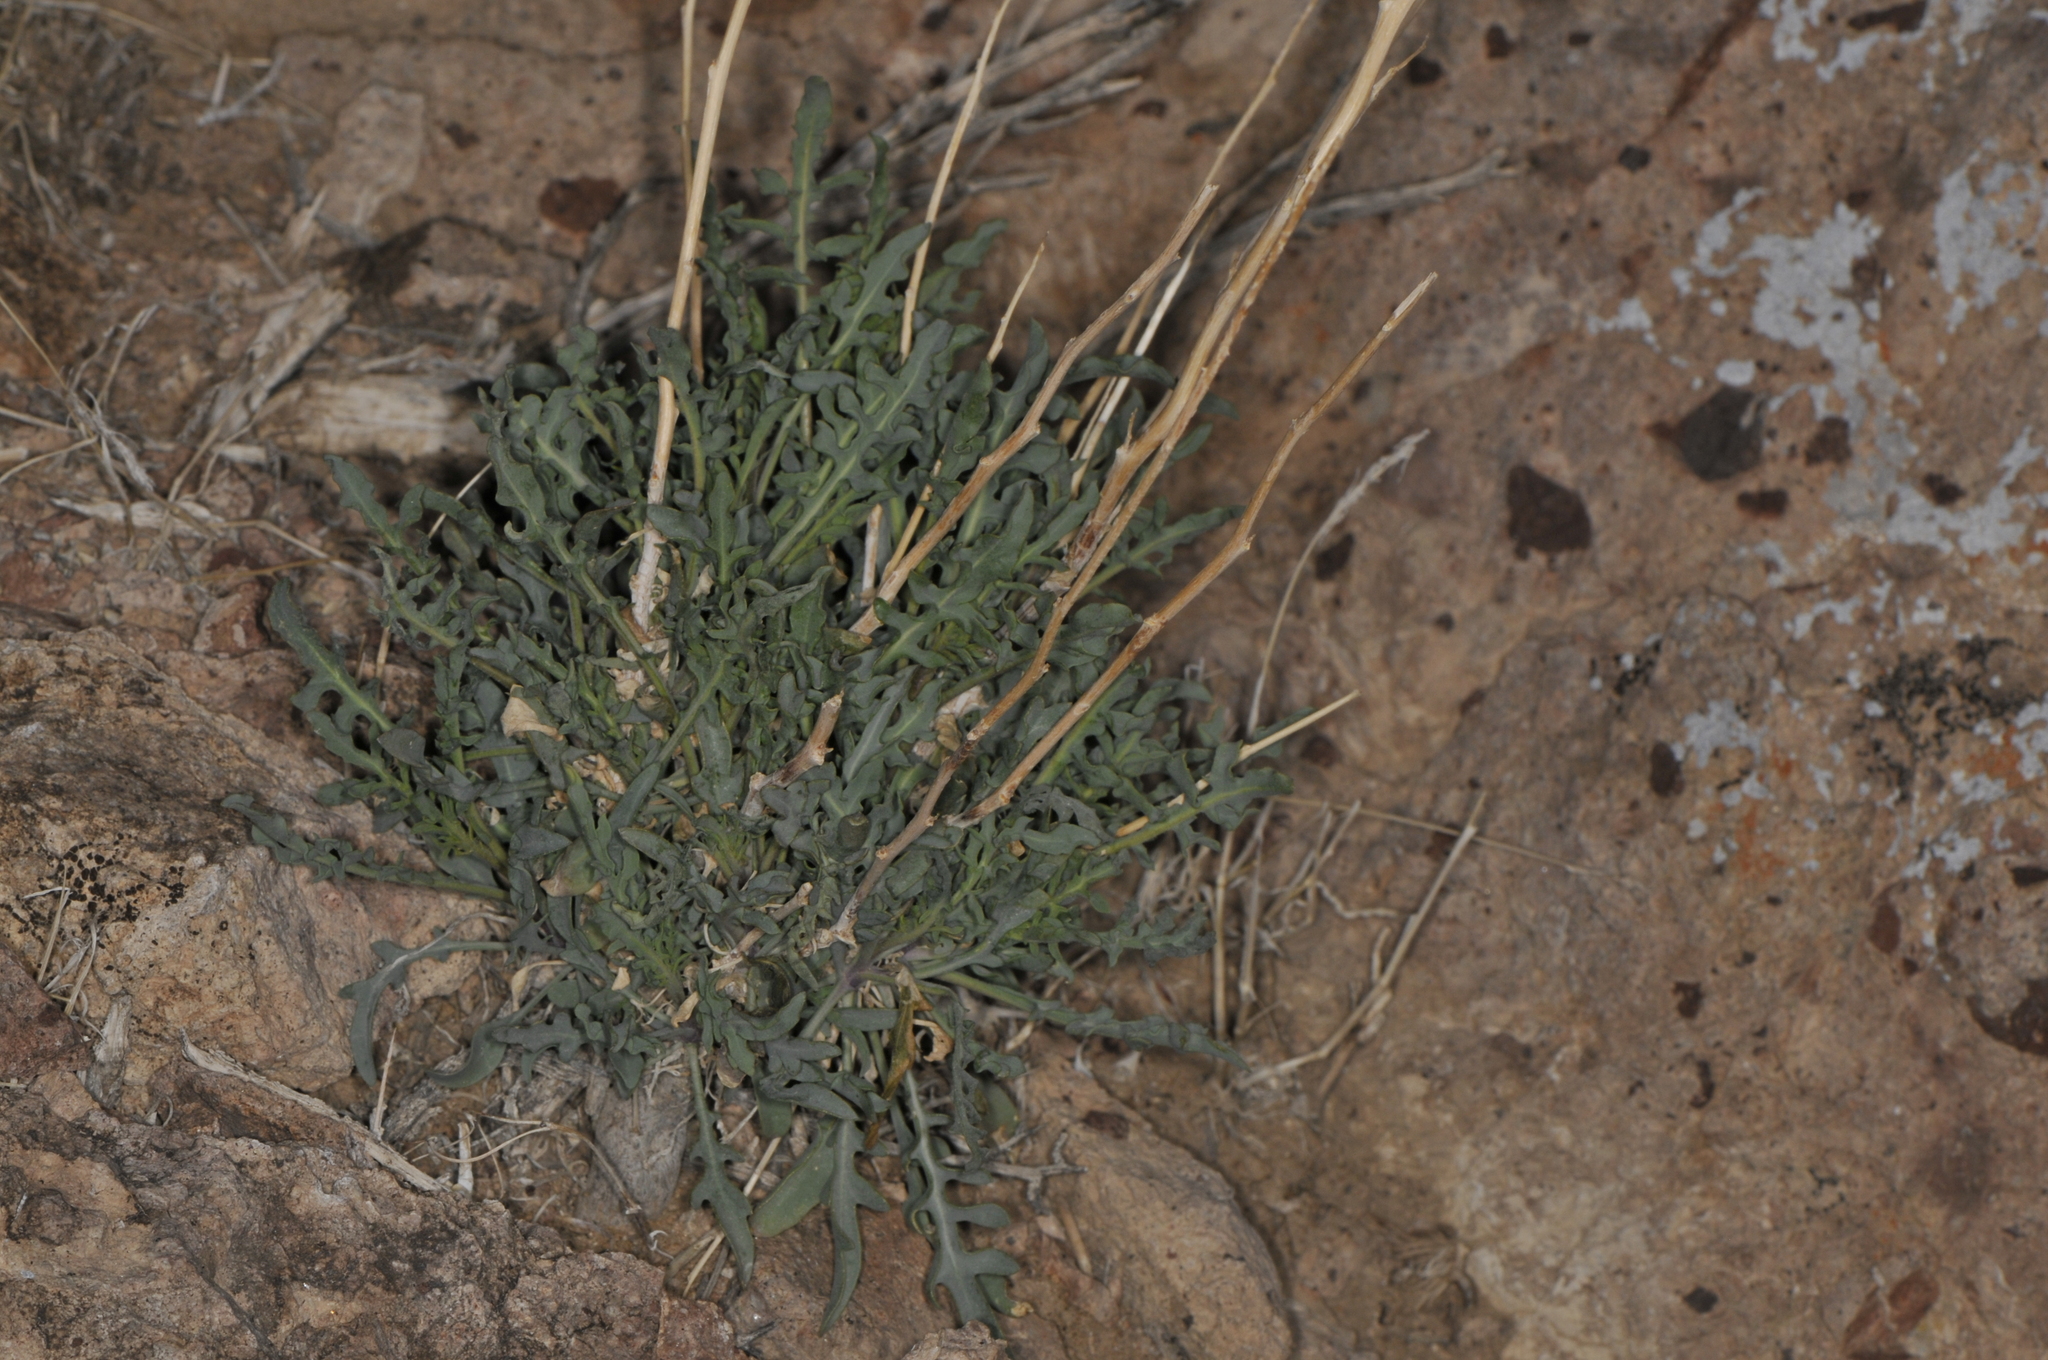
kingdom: Plantae
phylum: Tracheophyta
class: Magnoliopsida
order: Brassicales
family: Brassicaceae
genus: Stanleya
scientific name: Stanleya pinnata
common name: Prince's-plume
